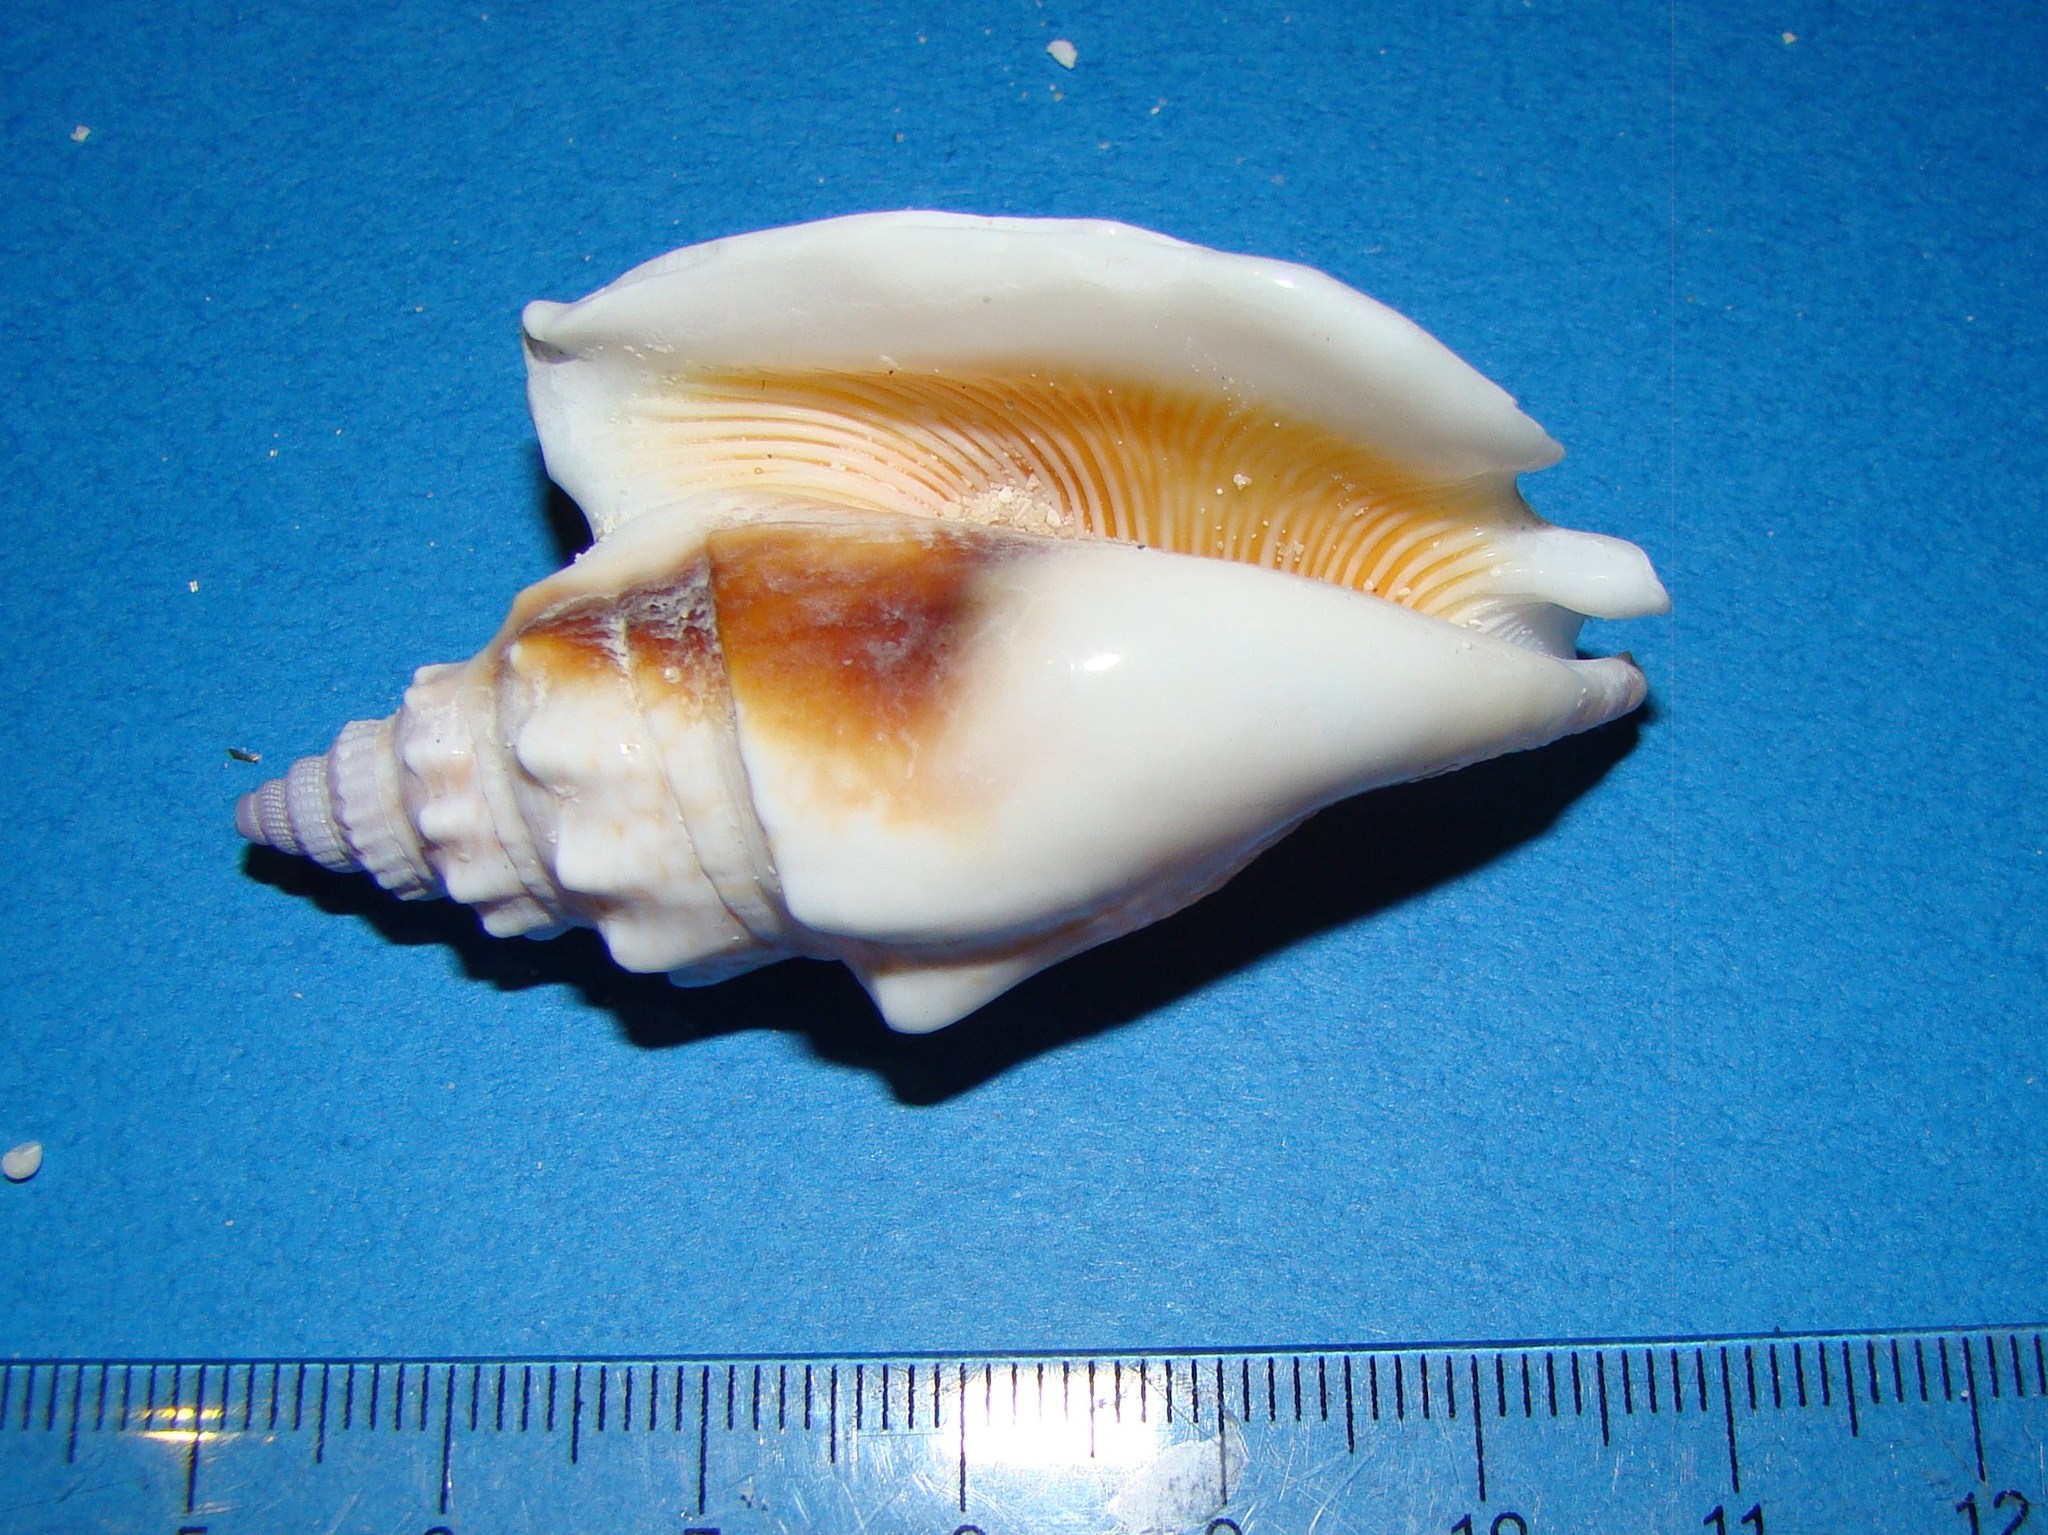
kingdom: Animalia
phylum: Mollusca
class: Gastropoda
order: Littorinimorpha
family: Strombidae
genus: Euprotomus
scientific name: Euprotomus vomer
